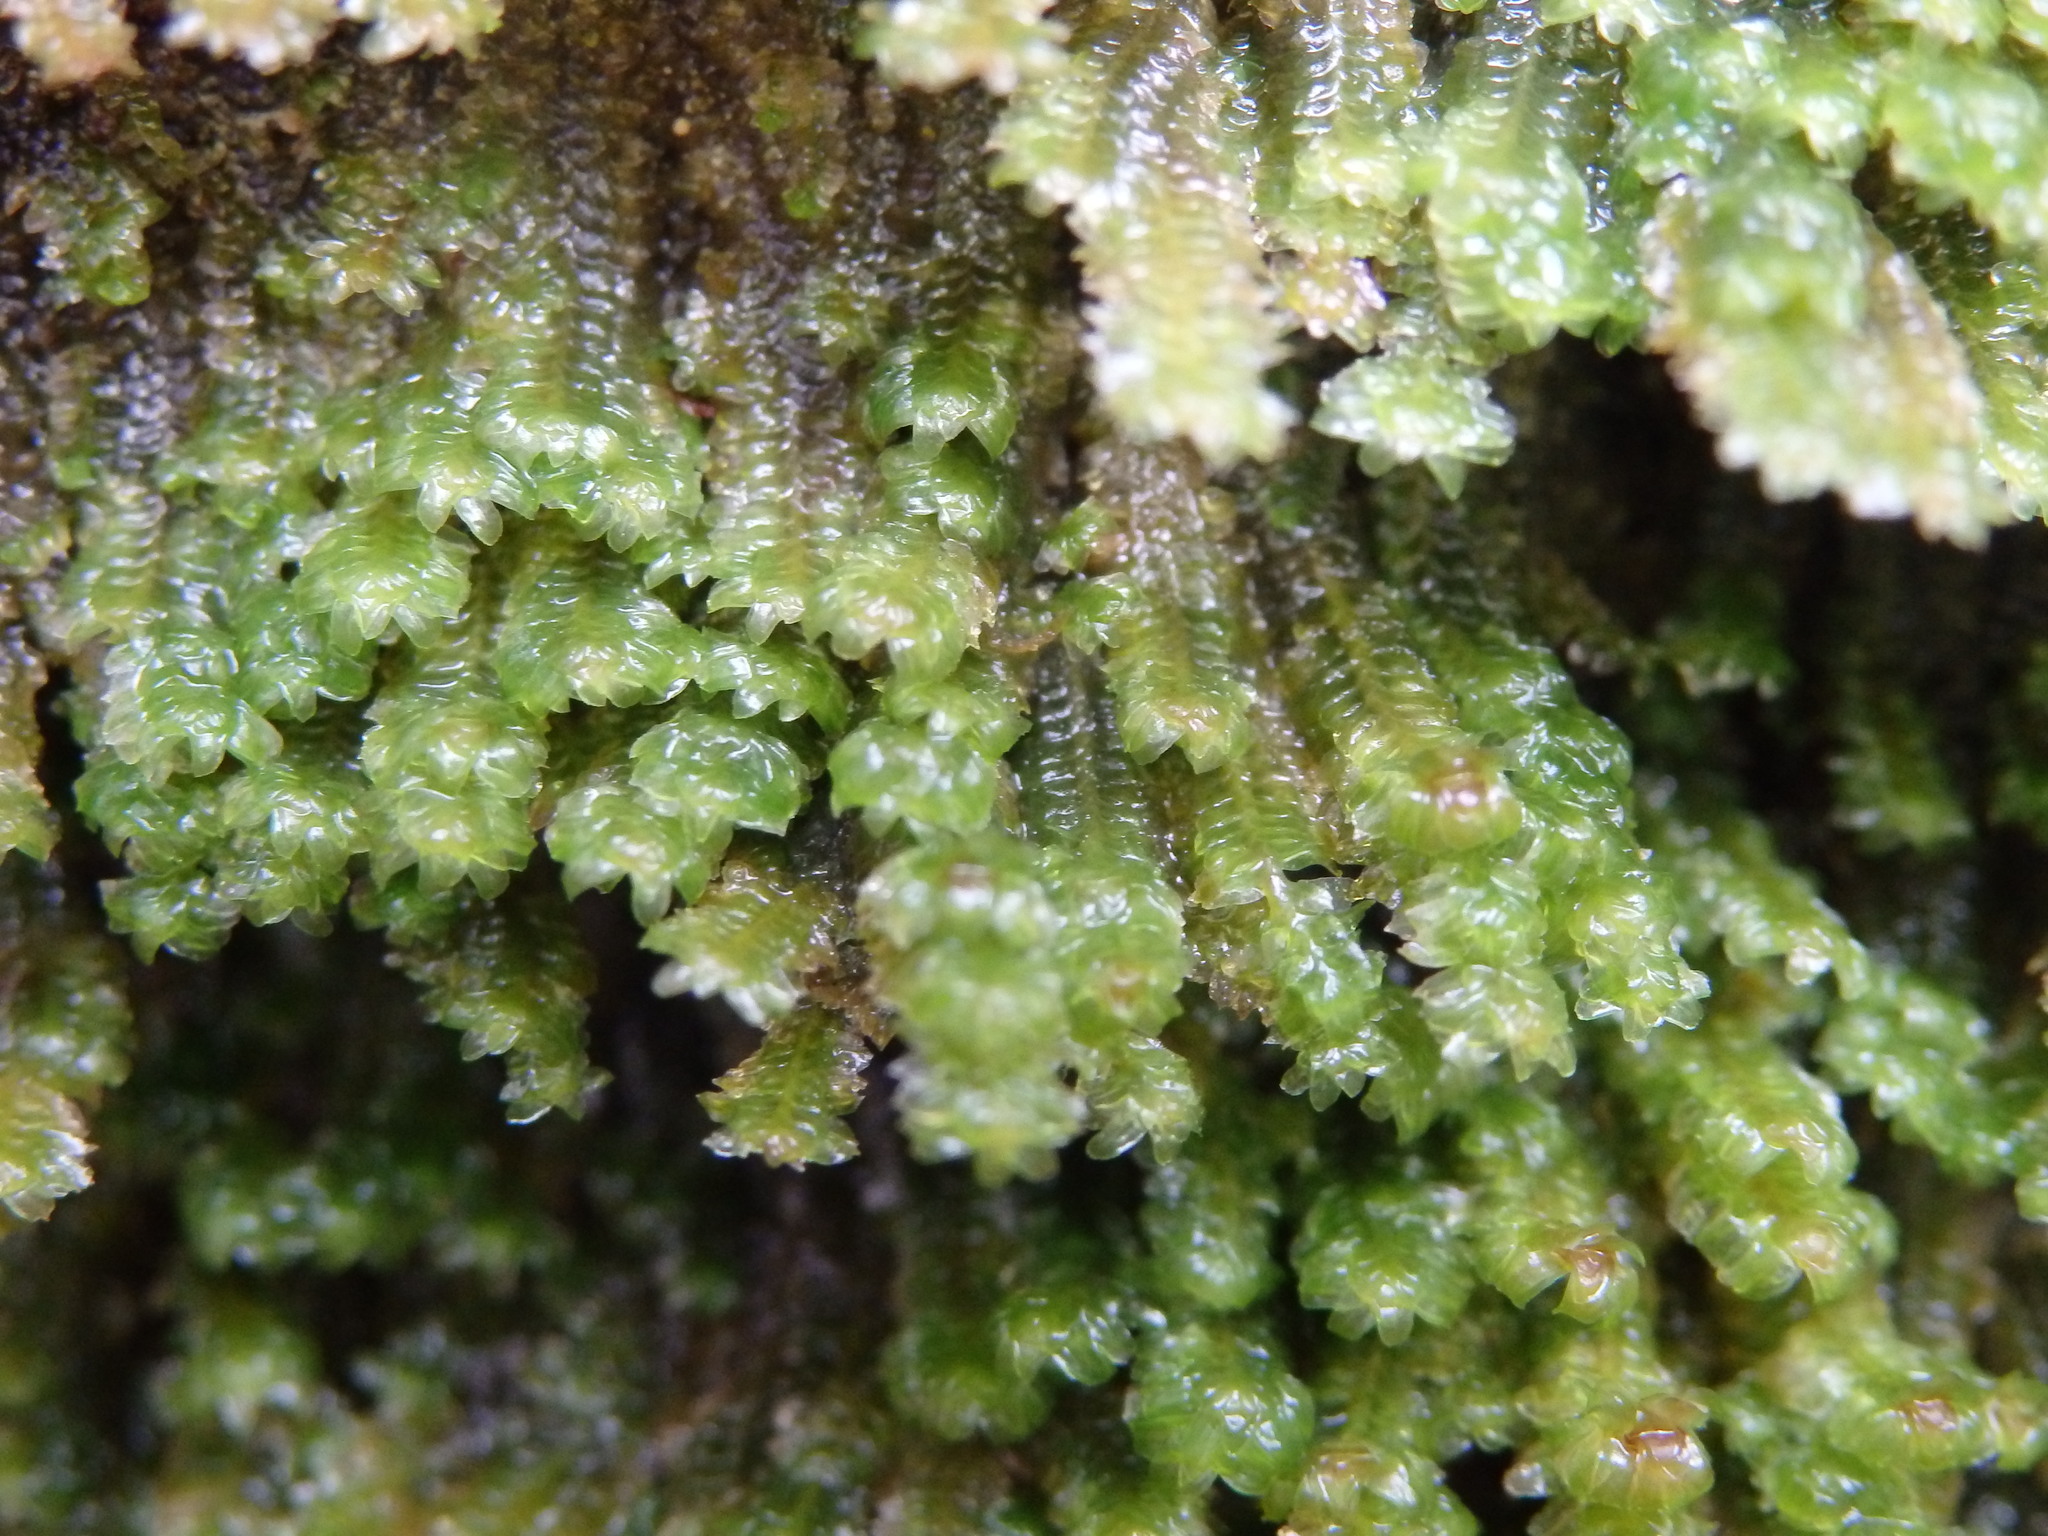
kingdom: Plantae
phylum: Marchantiophyta
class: Jungermanniopsida
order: Jungermanniales
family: Scapaniaceae
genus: Diplophyllum
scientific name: Diplophyllum albicans
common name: White earwort
